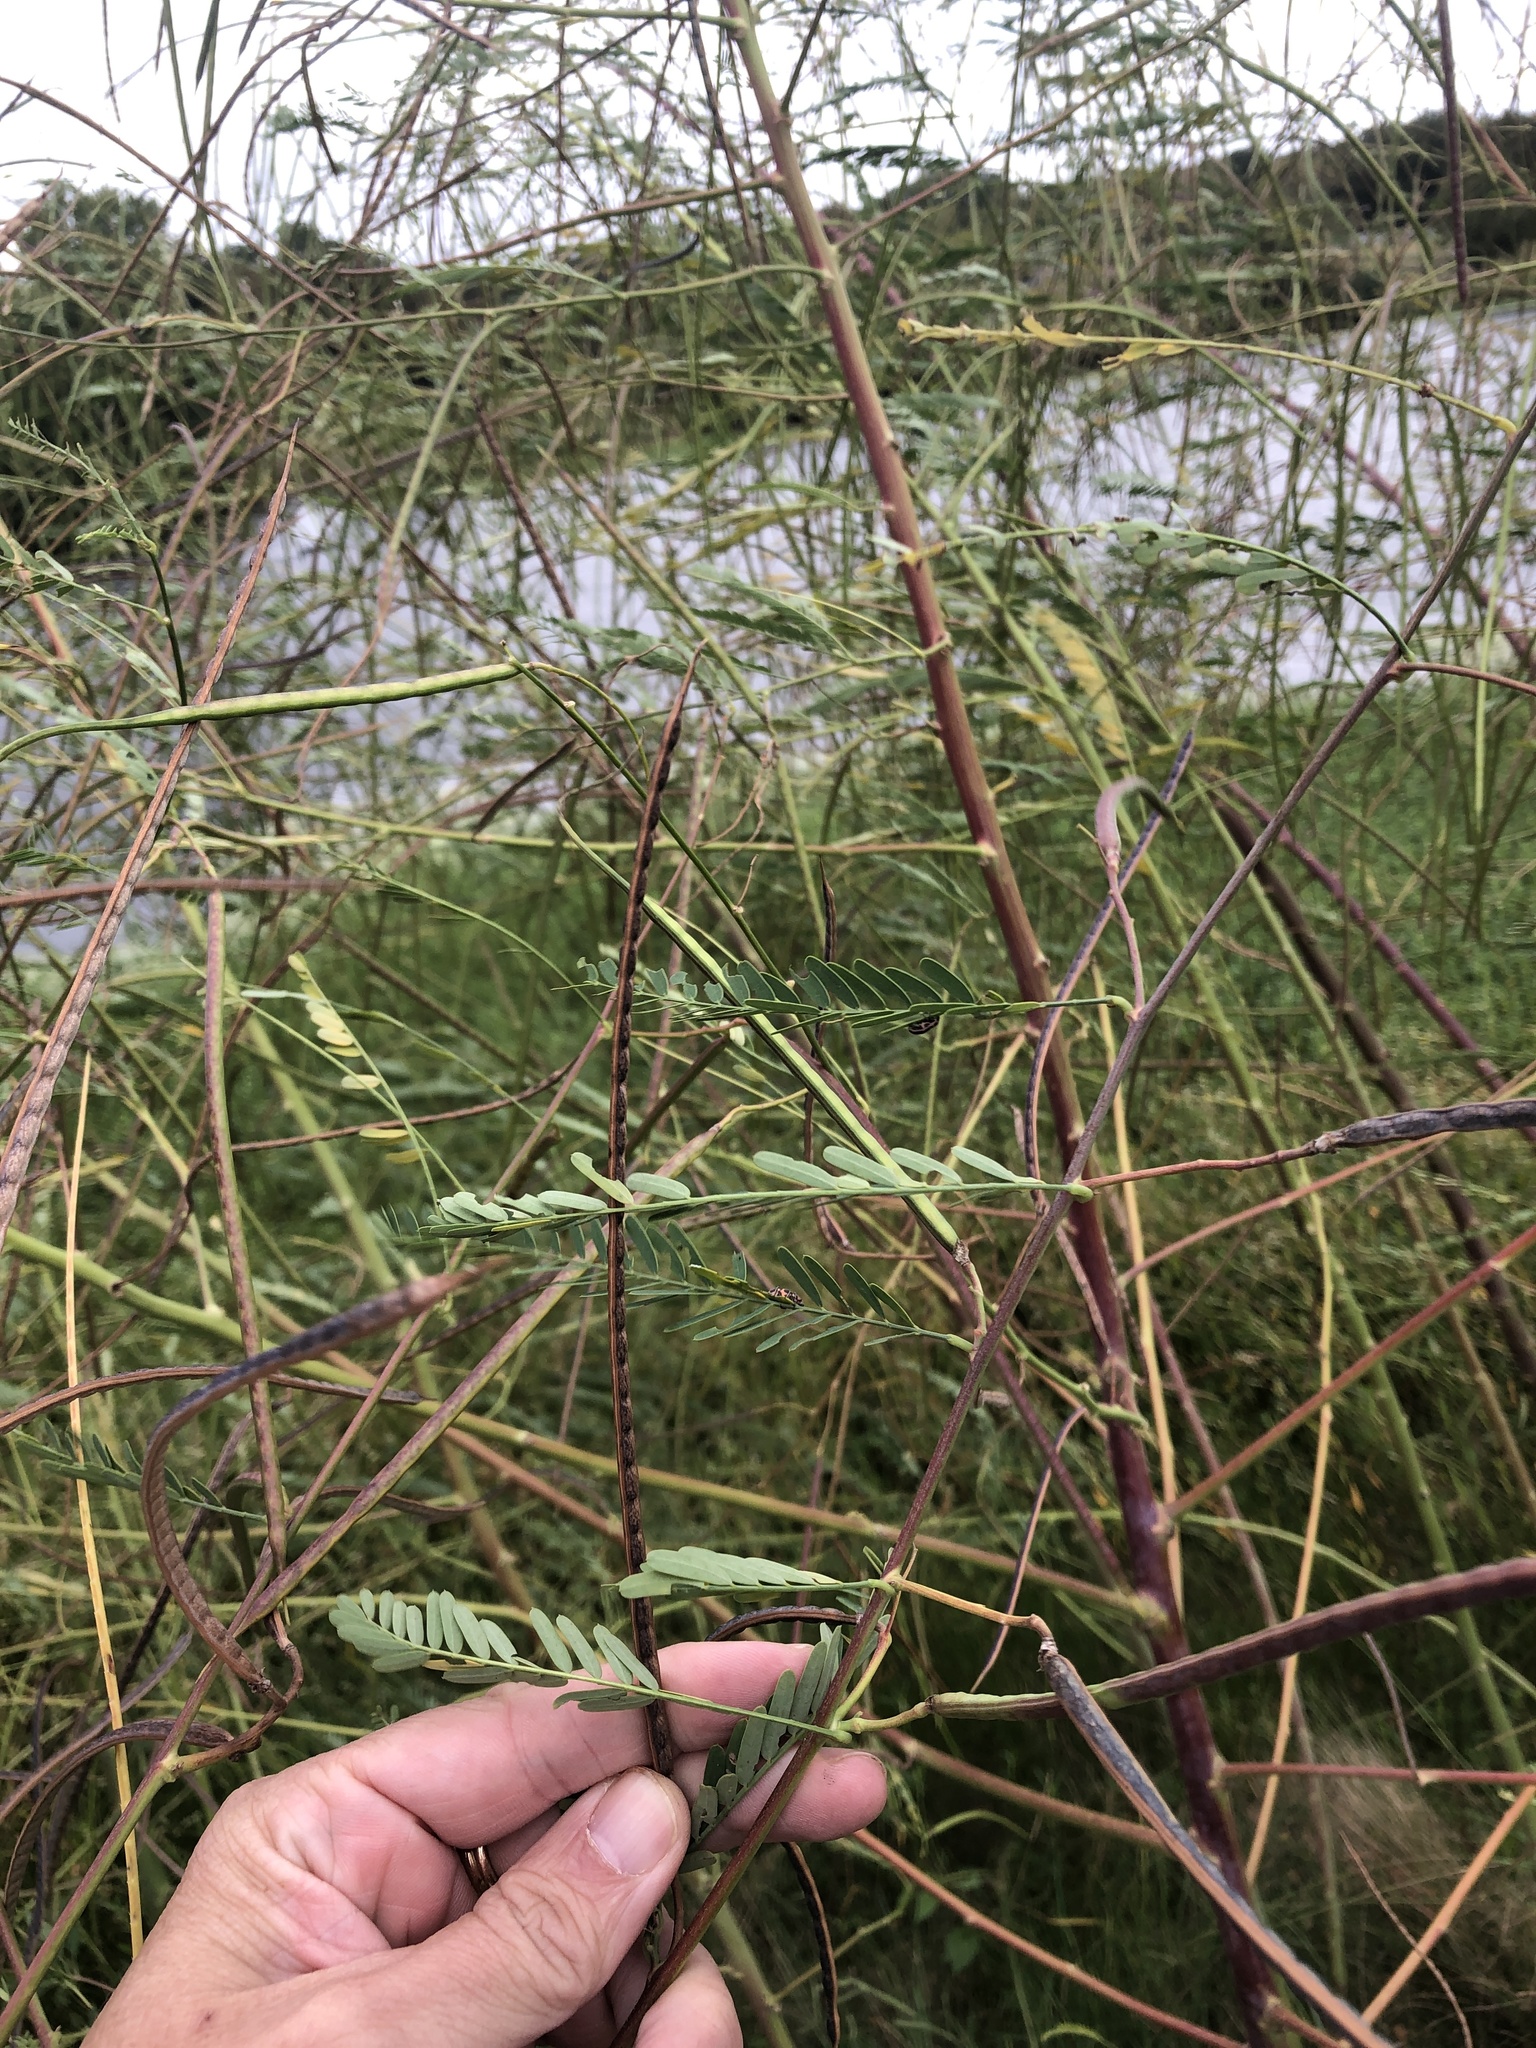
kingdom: Plantae
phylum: Tracheophyta
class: Magnoliopsida
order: Fabales
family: Fabaceae
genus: Sesbania
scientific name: Sesbania herbacea
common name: Bigpod sesbania
